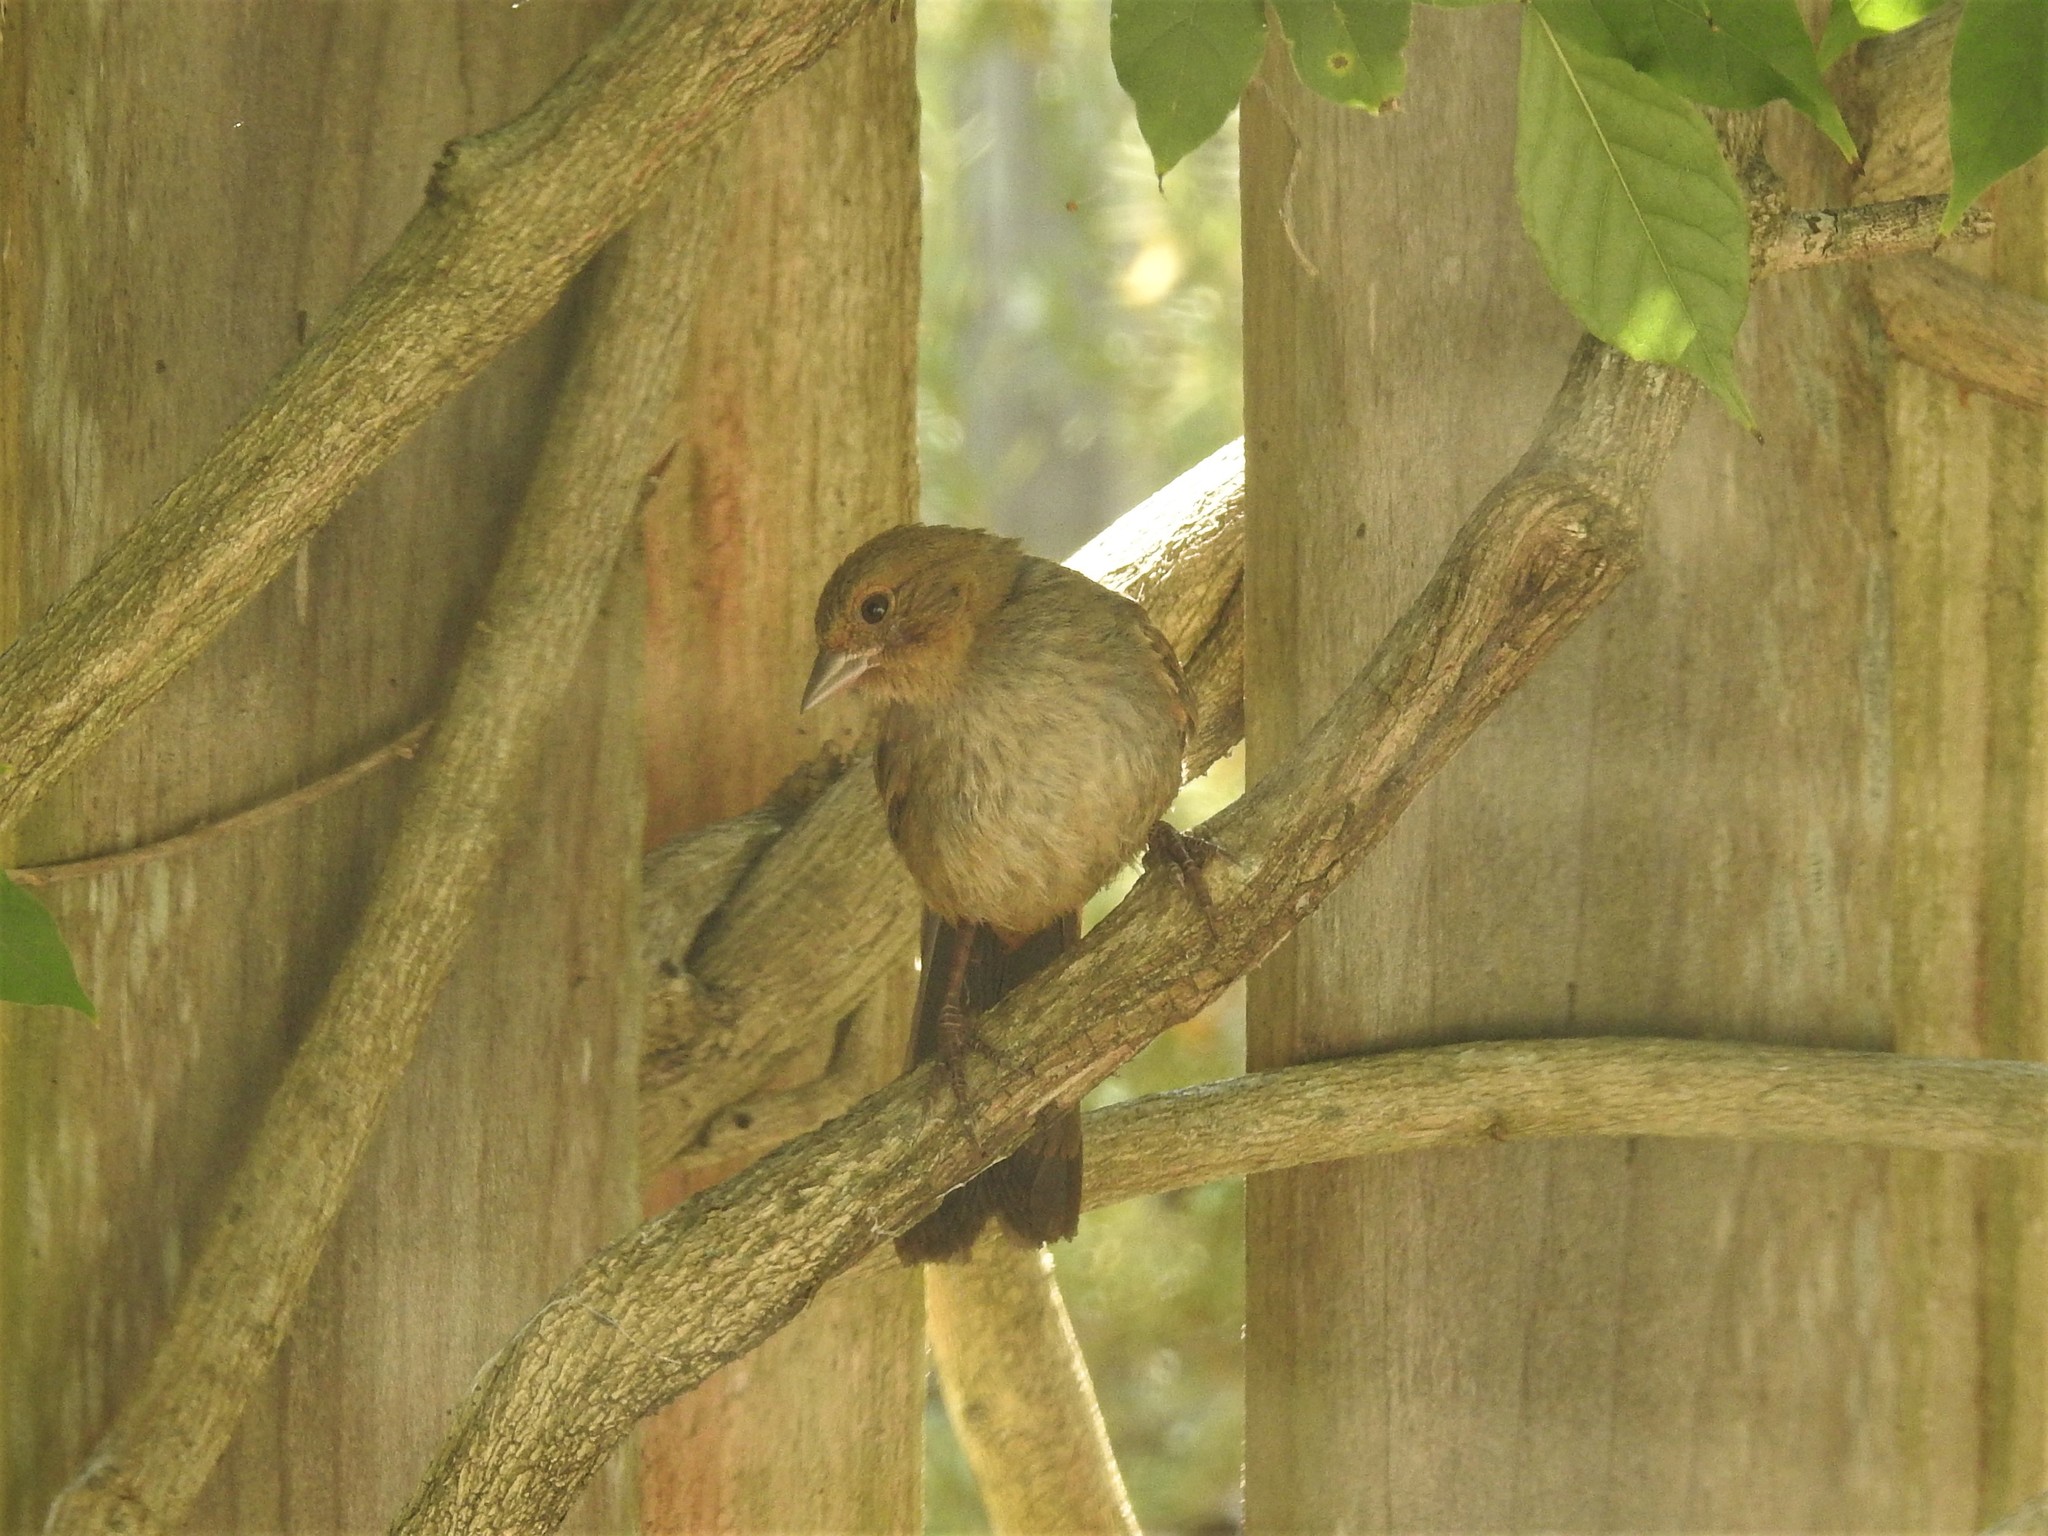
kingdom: Animalia
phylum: Chordata
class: Aves
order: Passeriformes
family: Passerellidae
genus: Melozone
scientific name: Melozone crissalis
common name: California towhee
